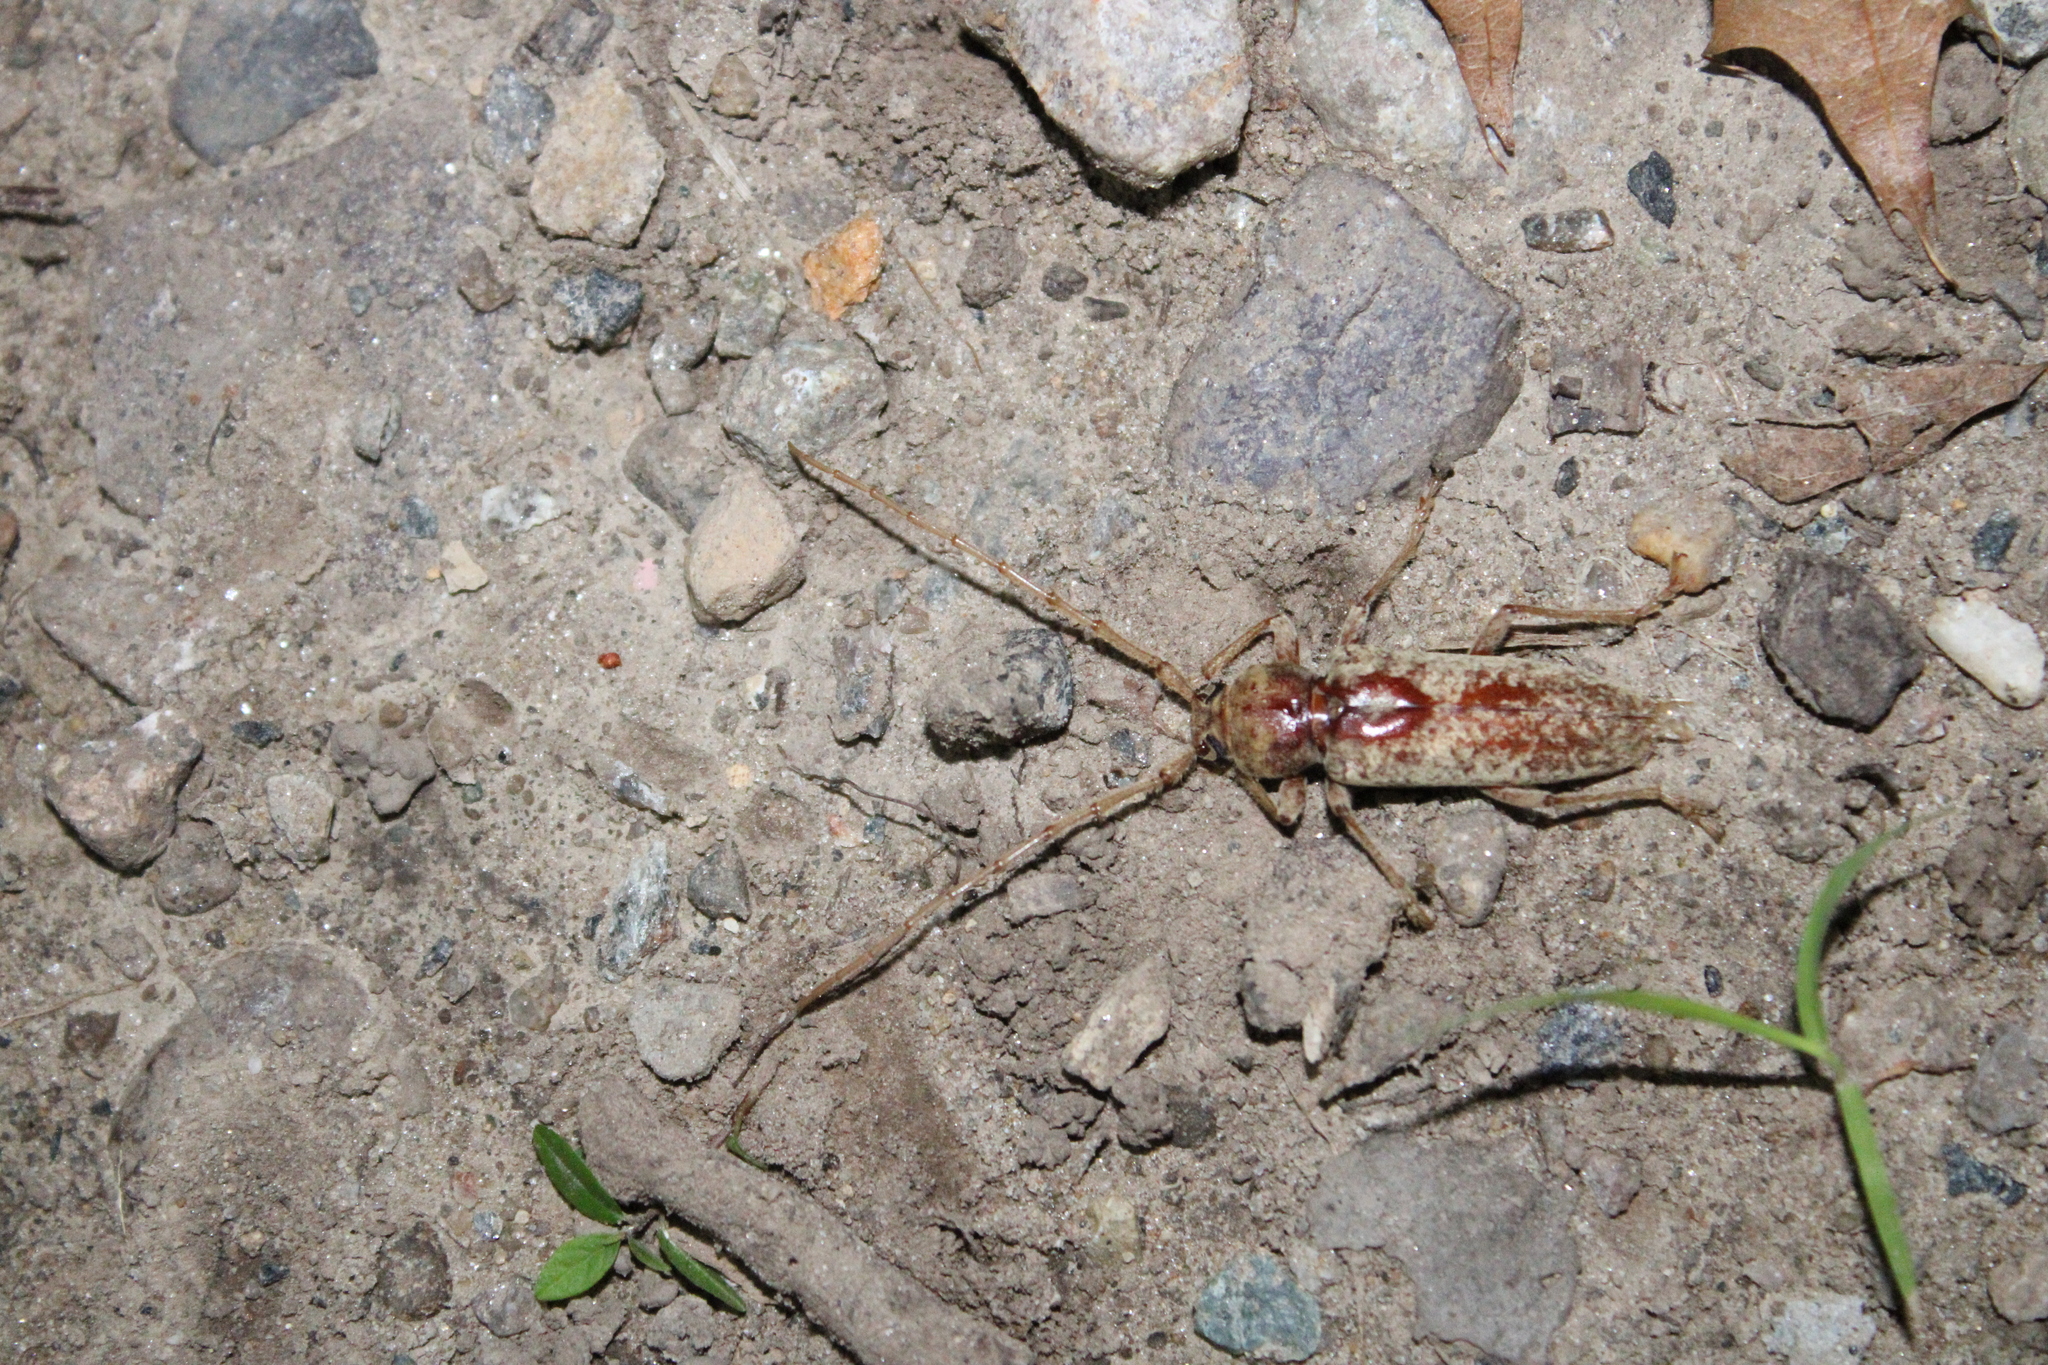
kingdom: Animalia
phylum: Arthropoda
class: Insecta
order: Coleoptera
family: Cerambycidae
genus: Enaphalodes
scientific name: Enaphalodes rufulus
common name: Red oak borer
